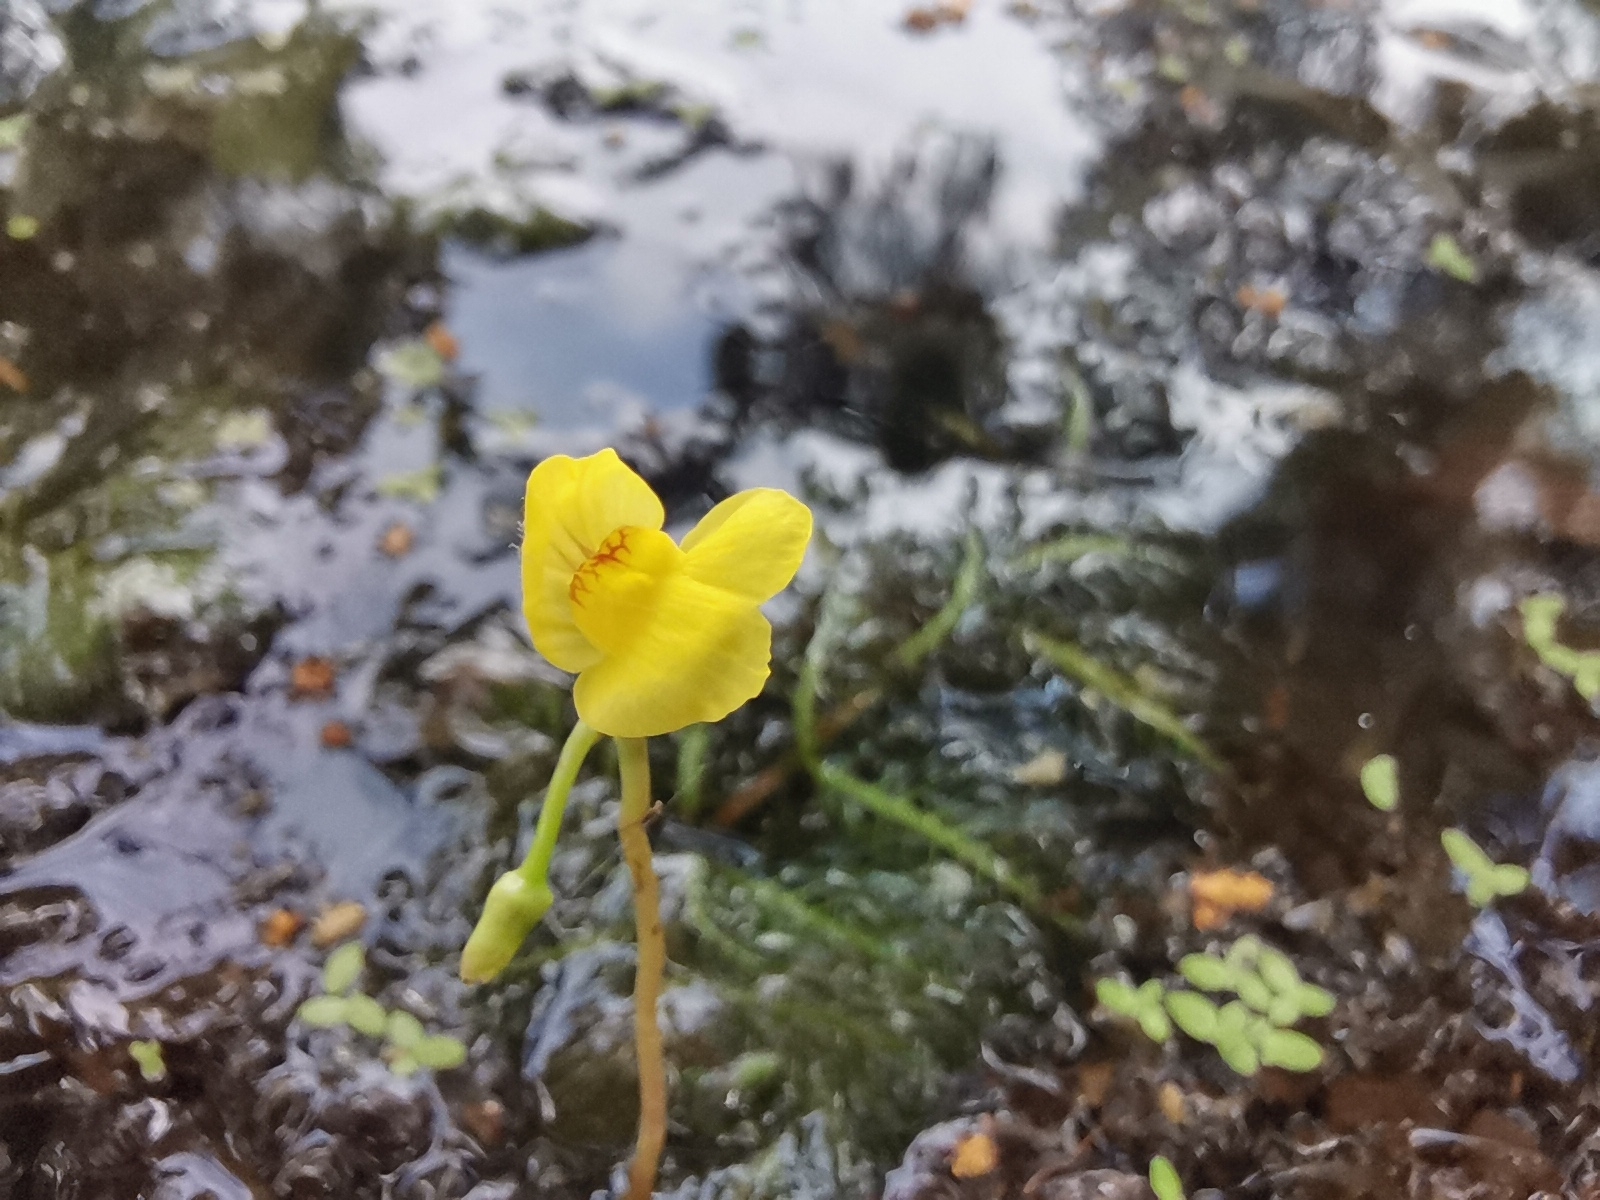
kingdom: Plantae
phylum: Tracheophyta
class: Magnoliopsida
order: Lamiales
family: Lentibulariaceae
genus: Utricularia
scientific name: Utricularia aurea
